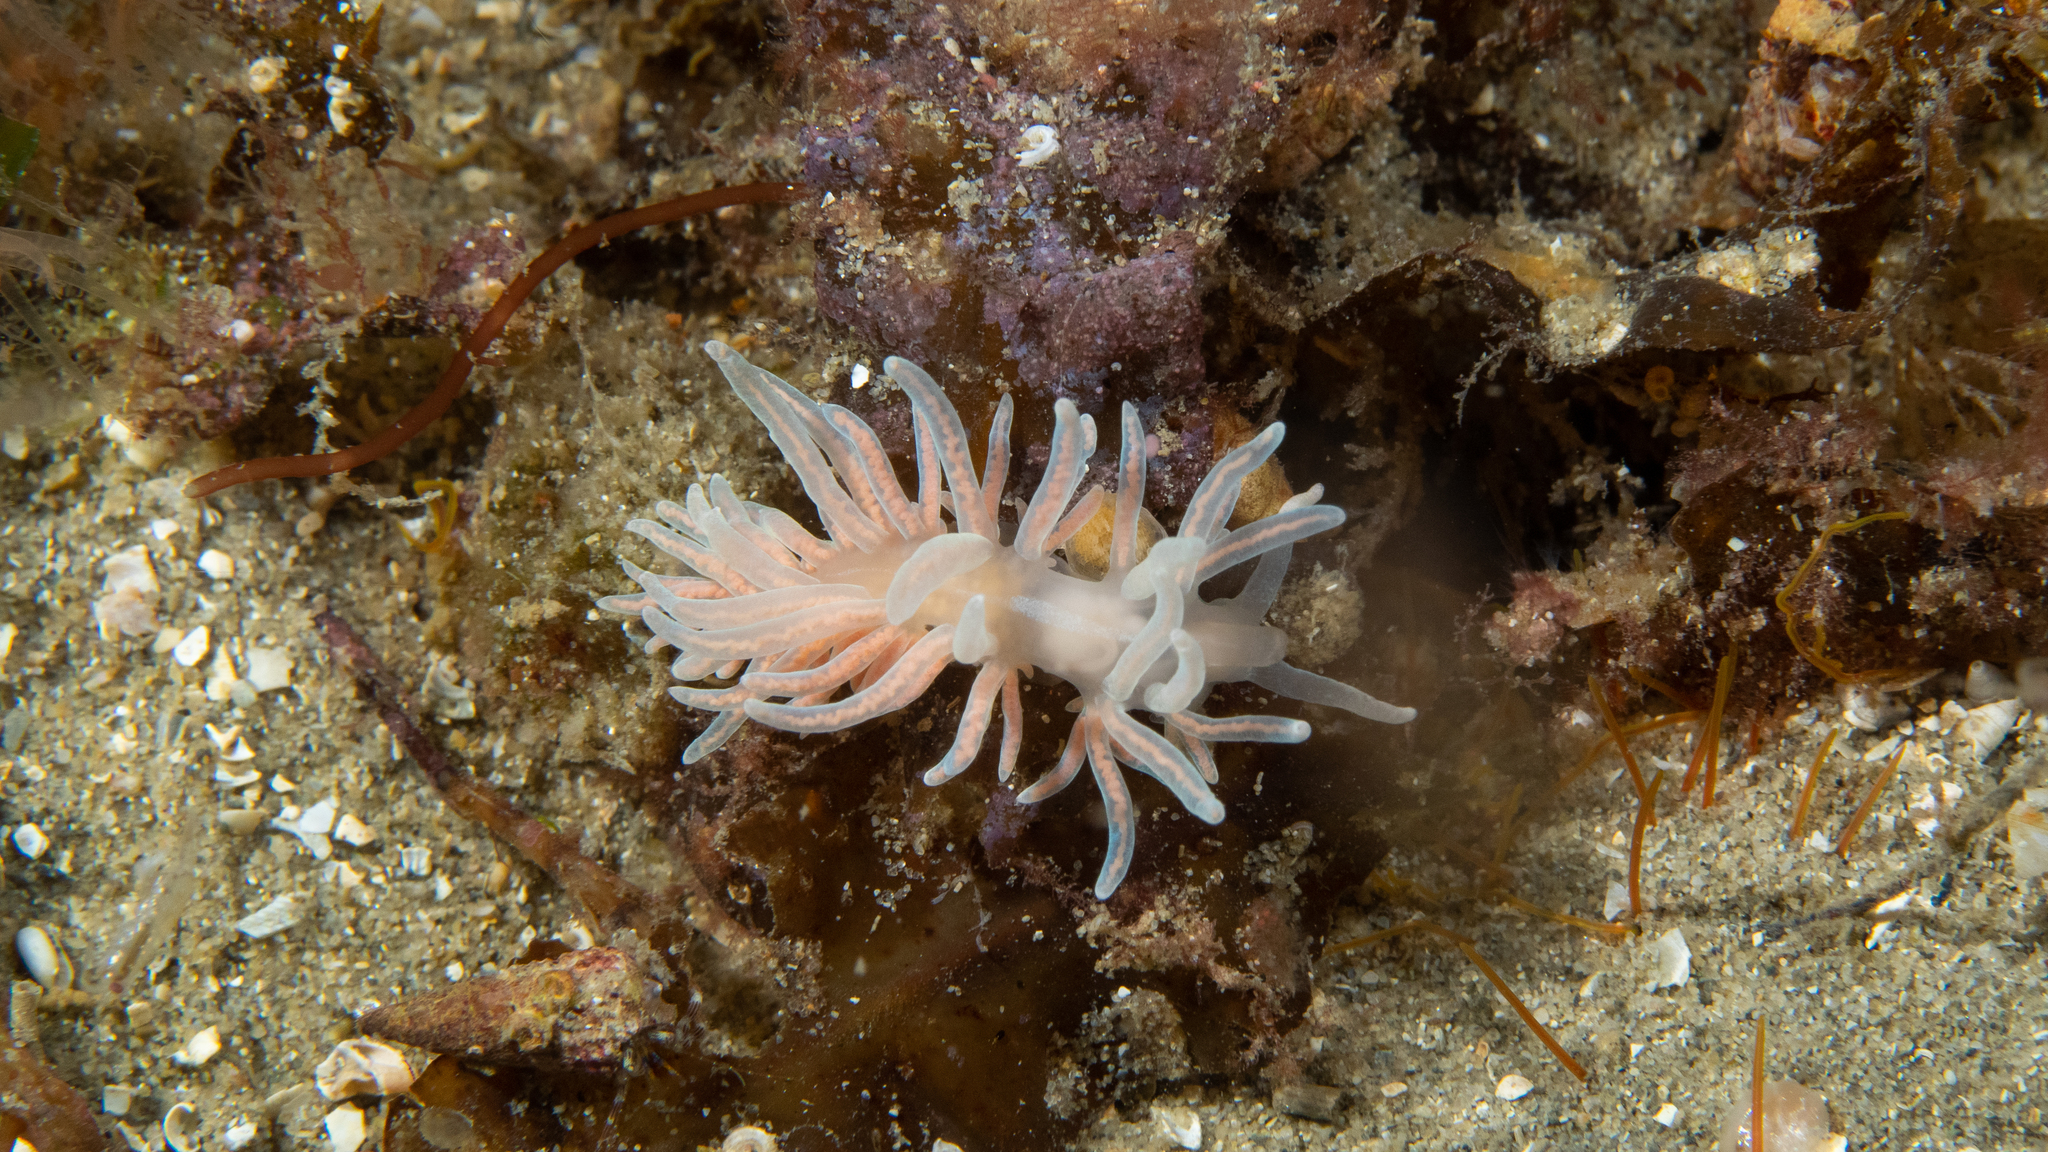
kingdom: Animalia
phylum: Mollusca
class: Gastropoda
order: Nudibranchia
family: Myrrhinidae
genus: Phyllodesmium
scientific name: Phyllodesmium serratum
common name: Coral nudibranch
